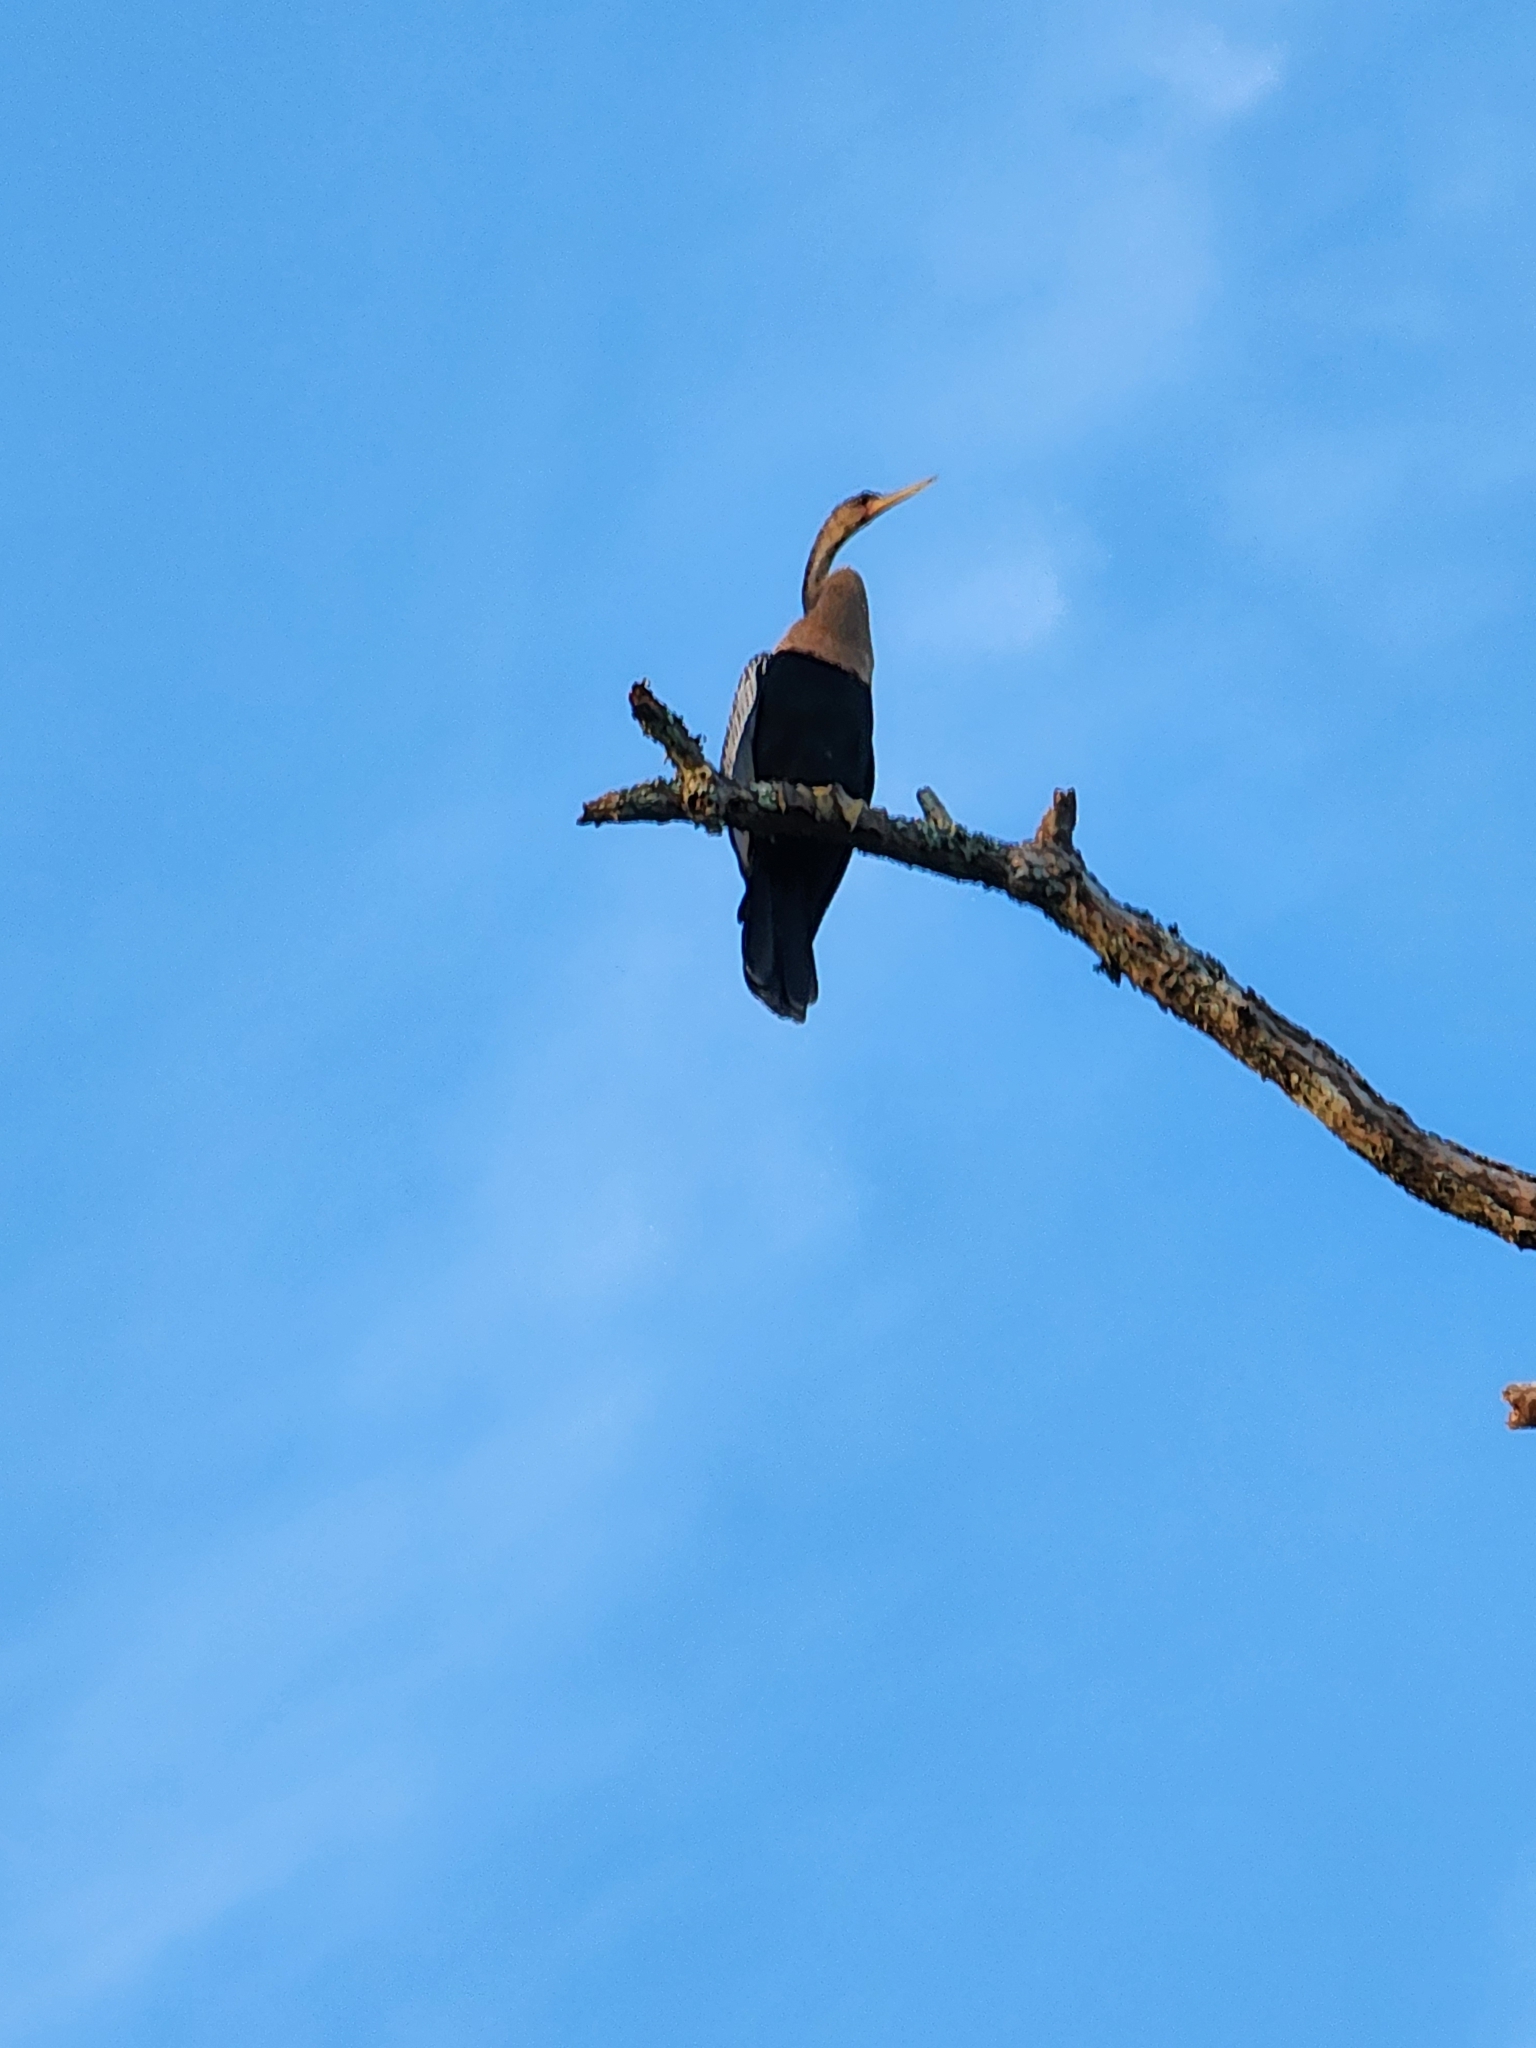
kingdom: Animalia
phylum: Chordata
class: Aves
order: Suliformes
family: Anhingidae
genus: Anhinga
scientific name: Anhinga anhinga
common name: Anhinga
